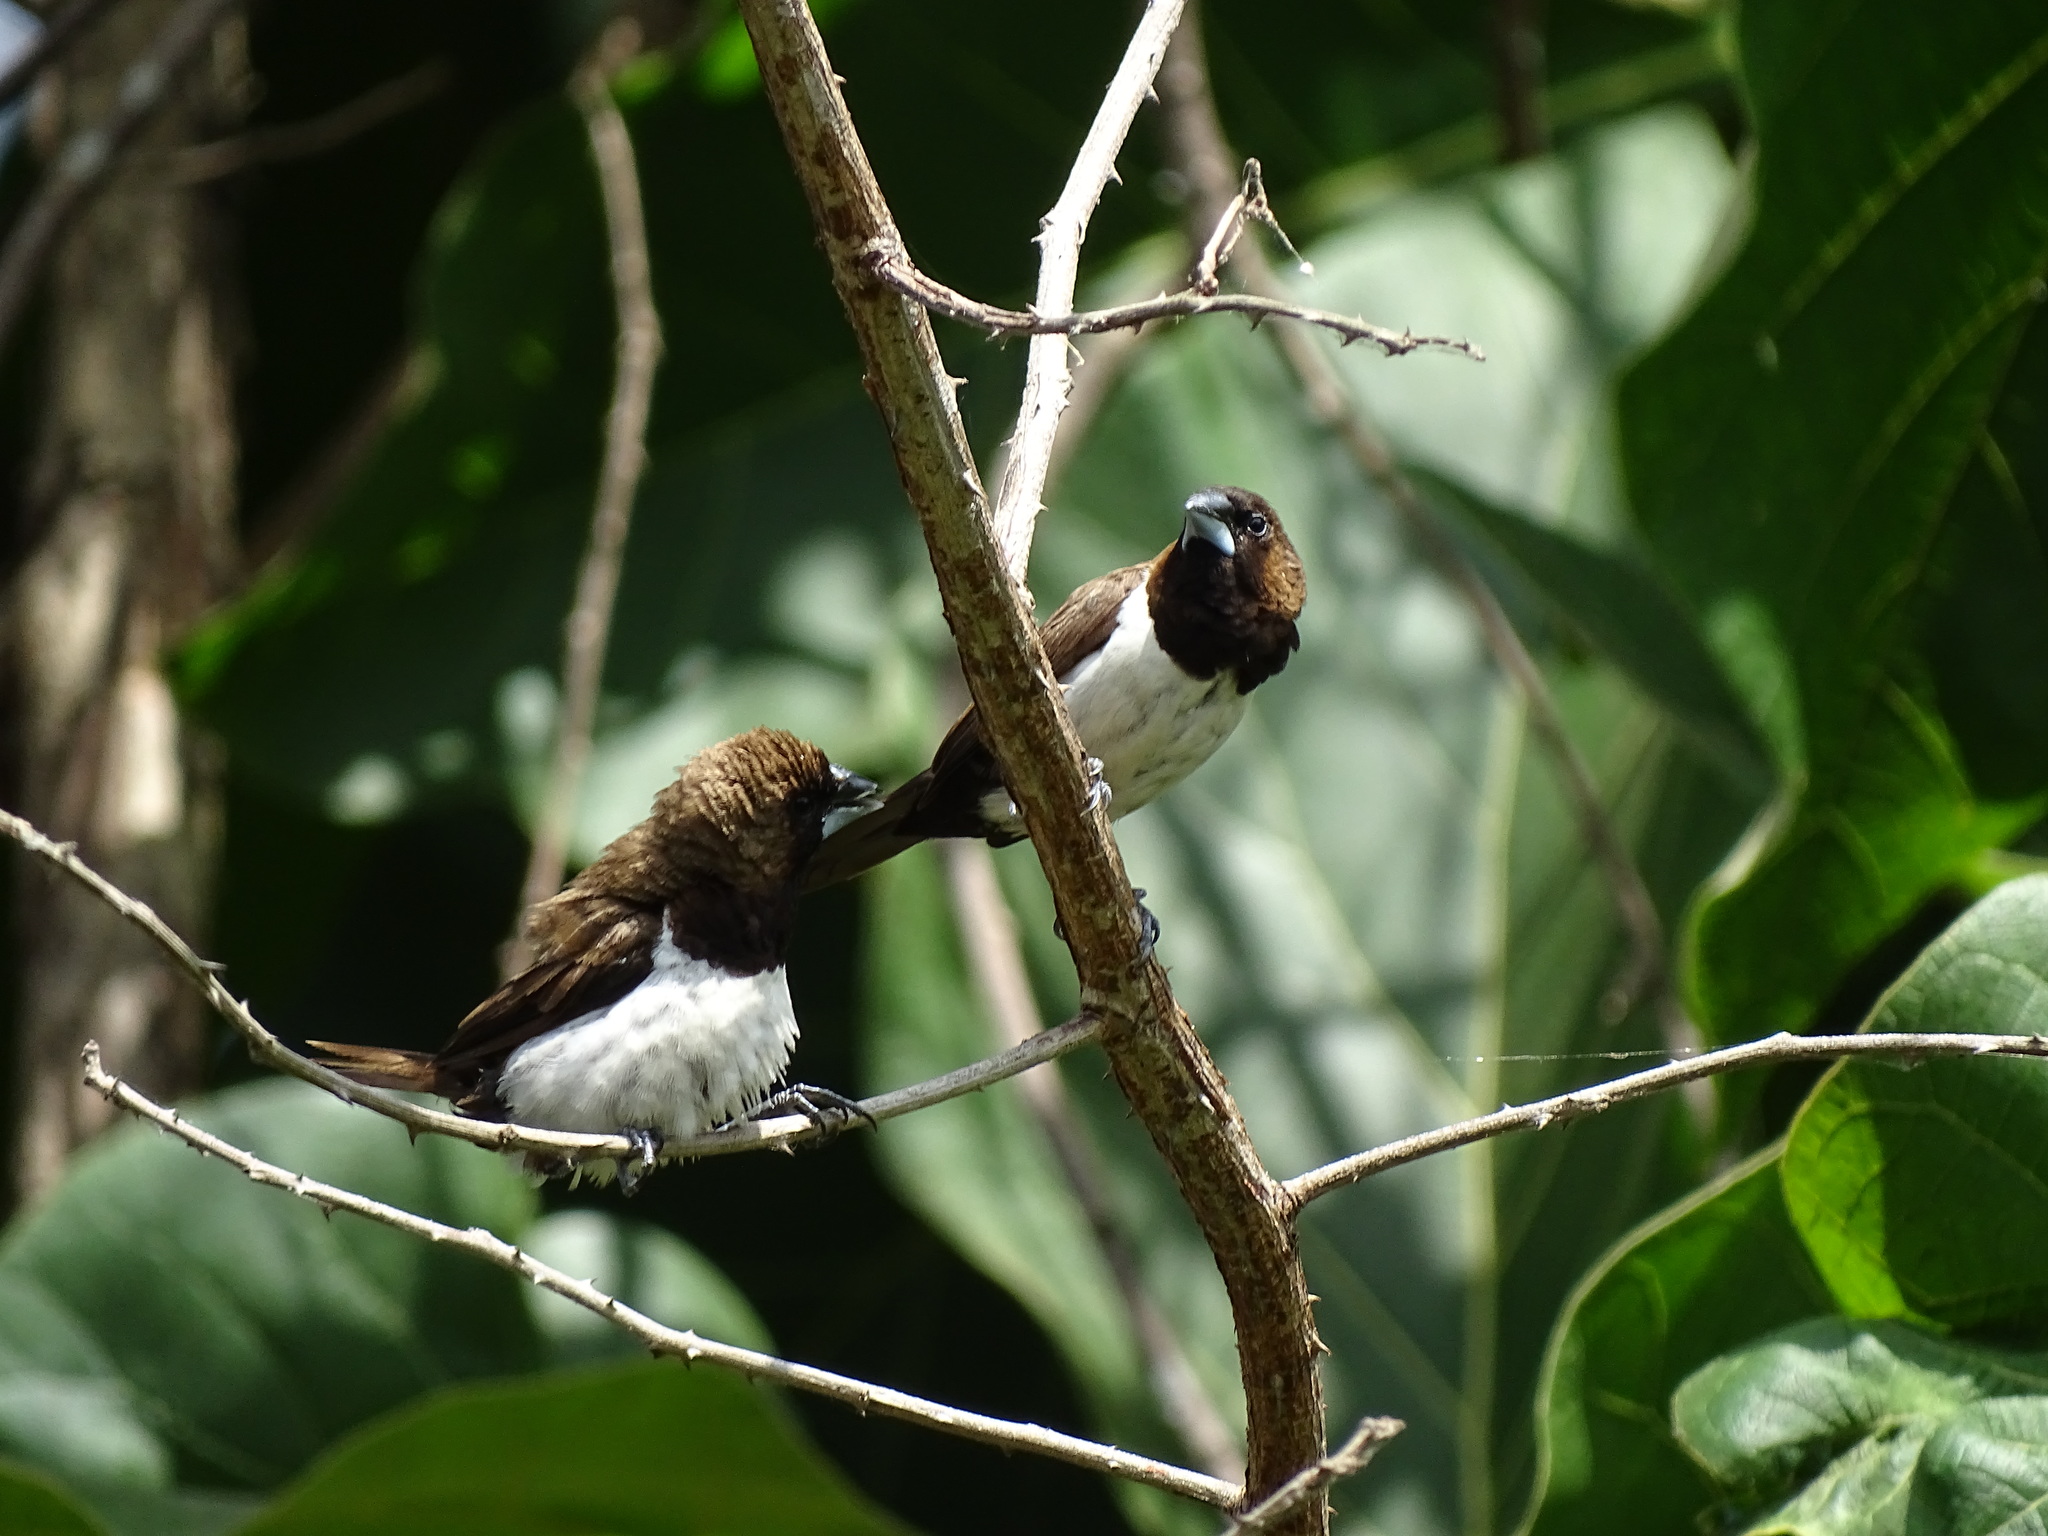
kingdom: Animalia
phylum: Chordata
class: Aves
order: Passeriformes
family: Estrildidae
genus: Lonchura
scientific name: Lonchura leucogastroides
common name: Javan munia
